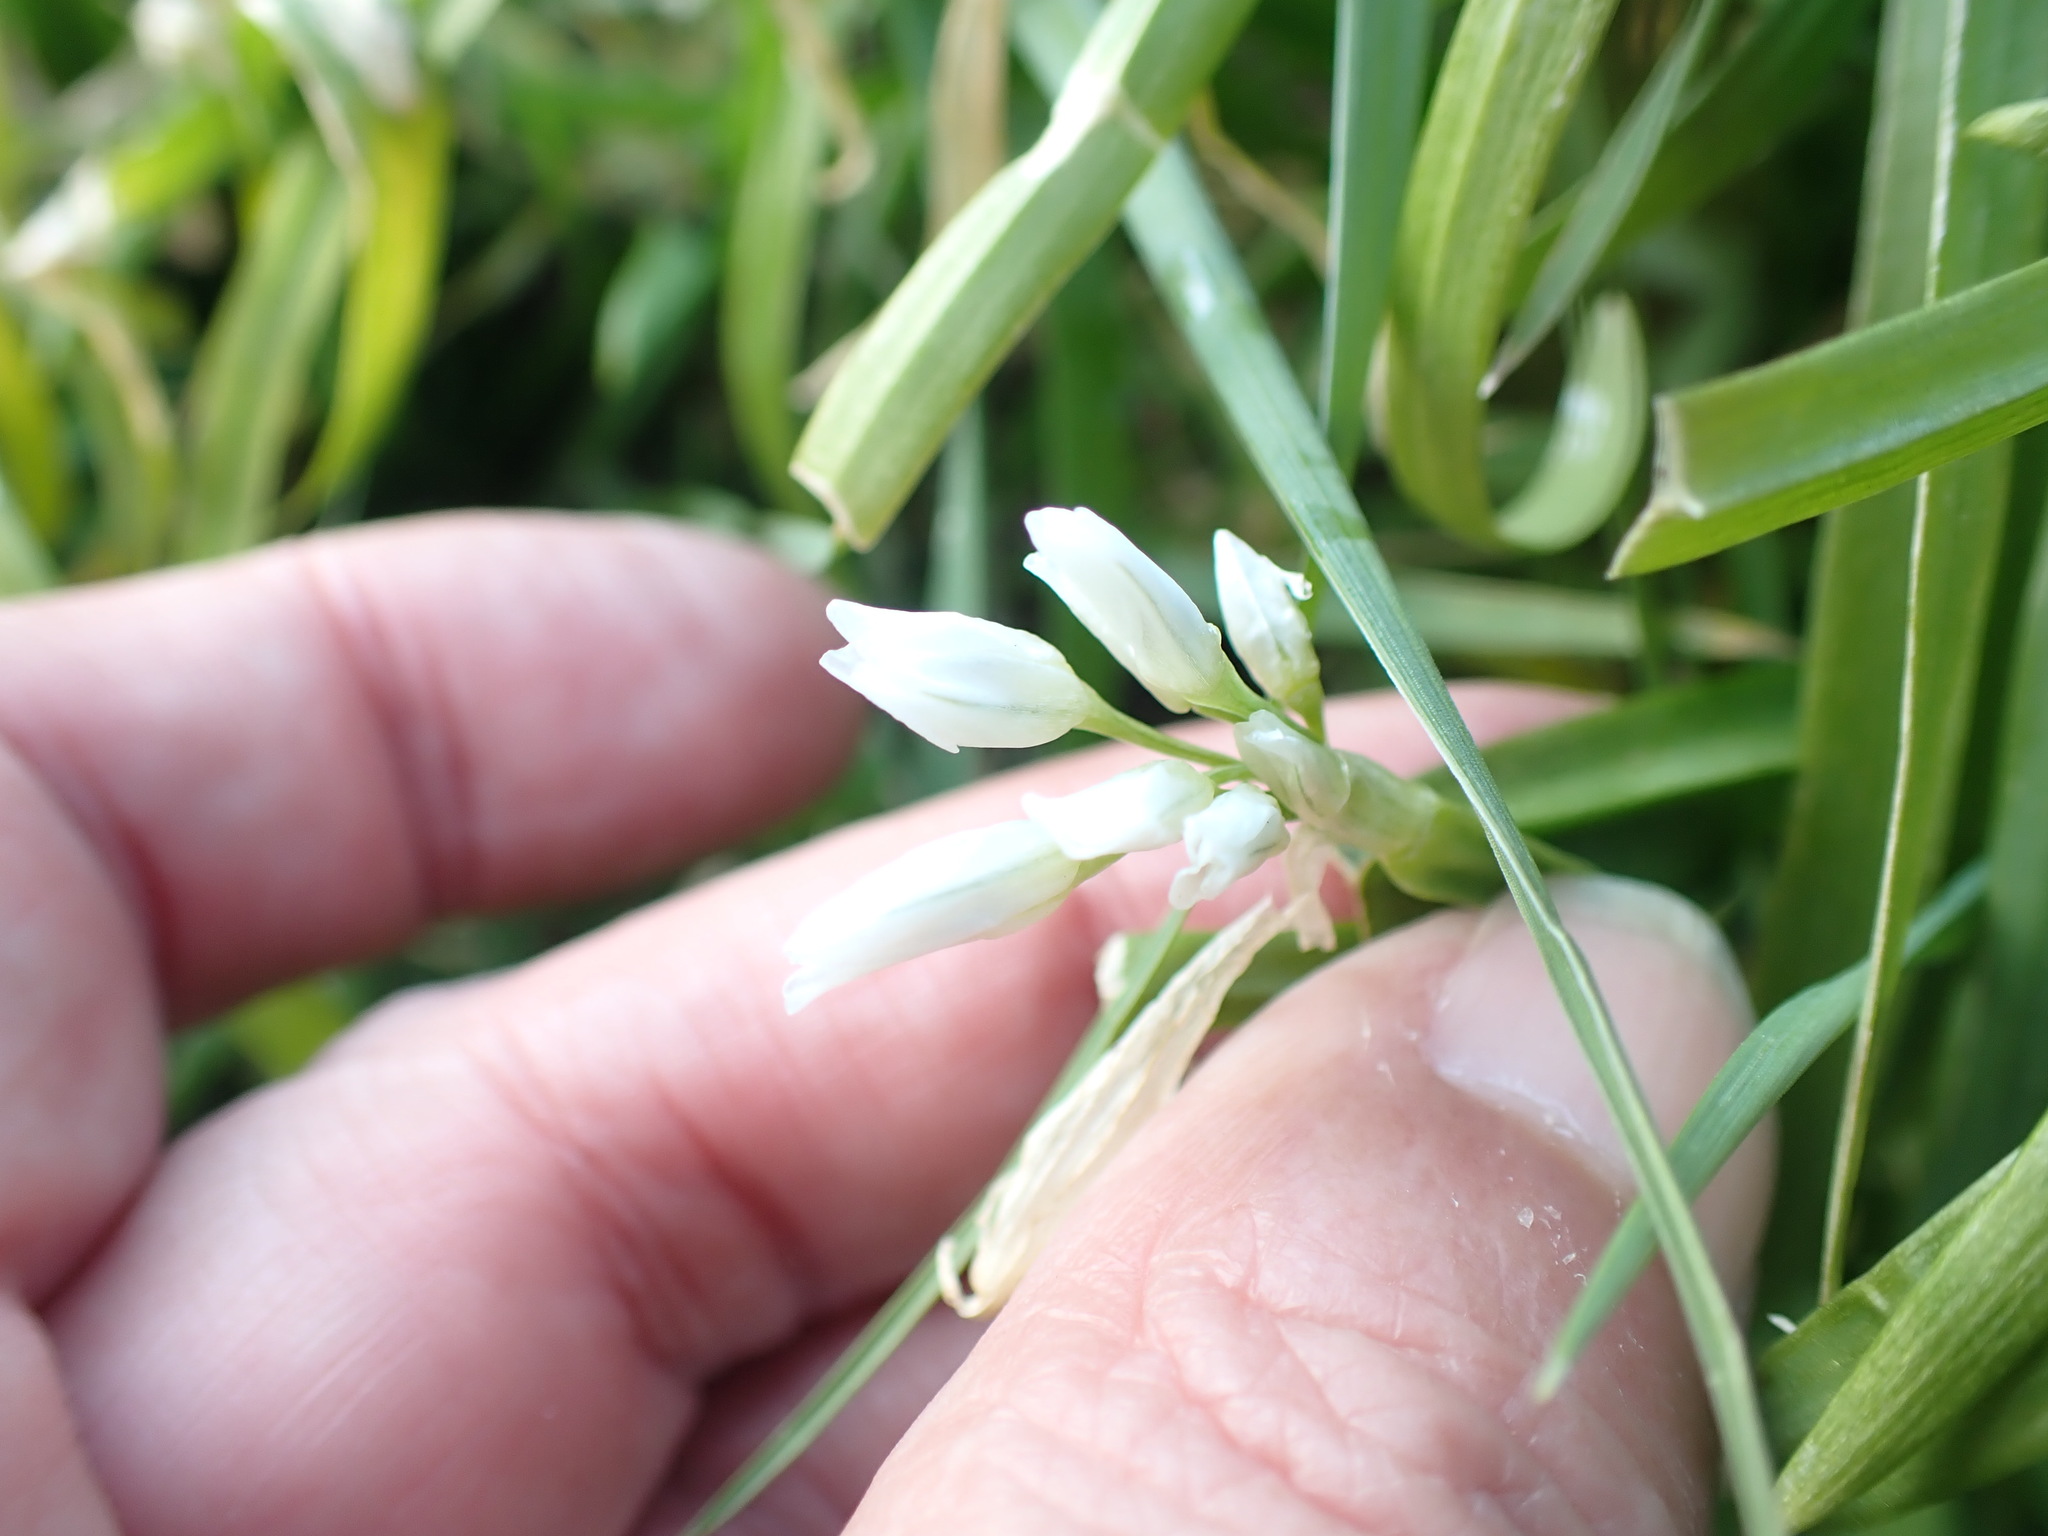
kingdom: Plantae
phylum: Tracheophyta
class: Liliopsida
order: Asparagales
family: Amaryllidaceae
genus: Allium
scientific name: Allium triquetrum
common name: Three-cornered garlic
